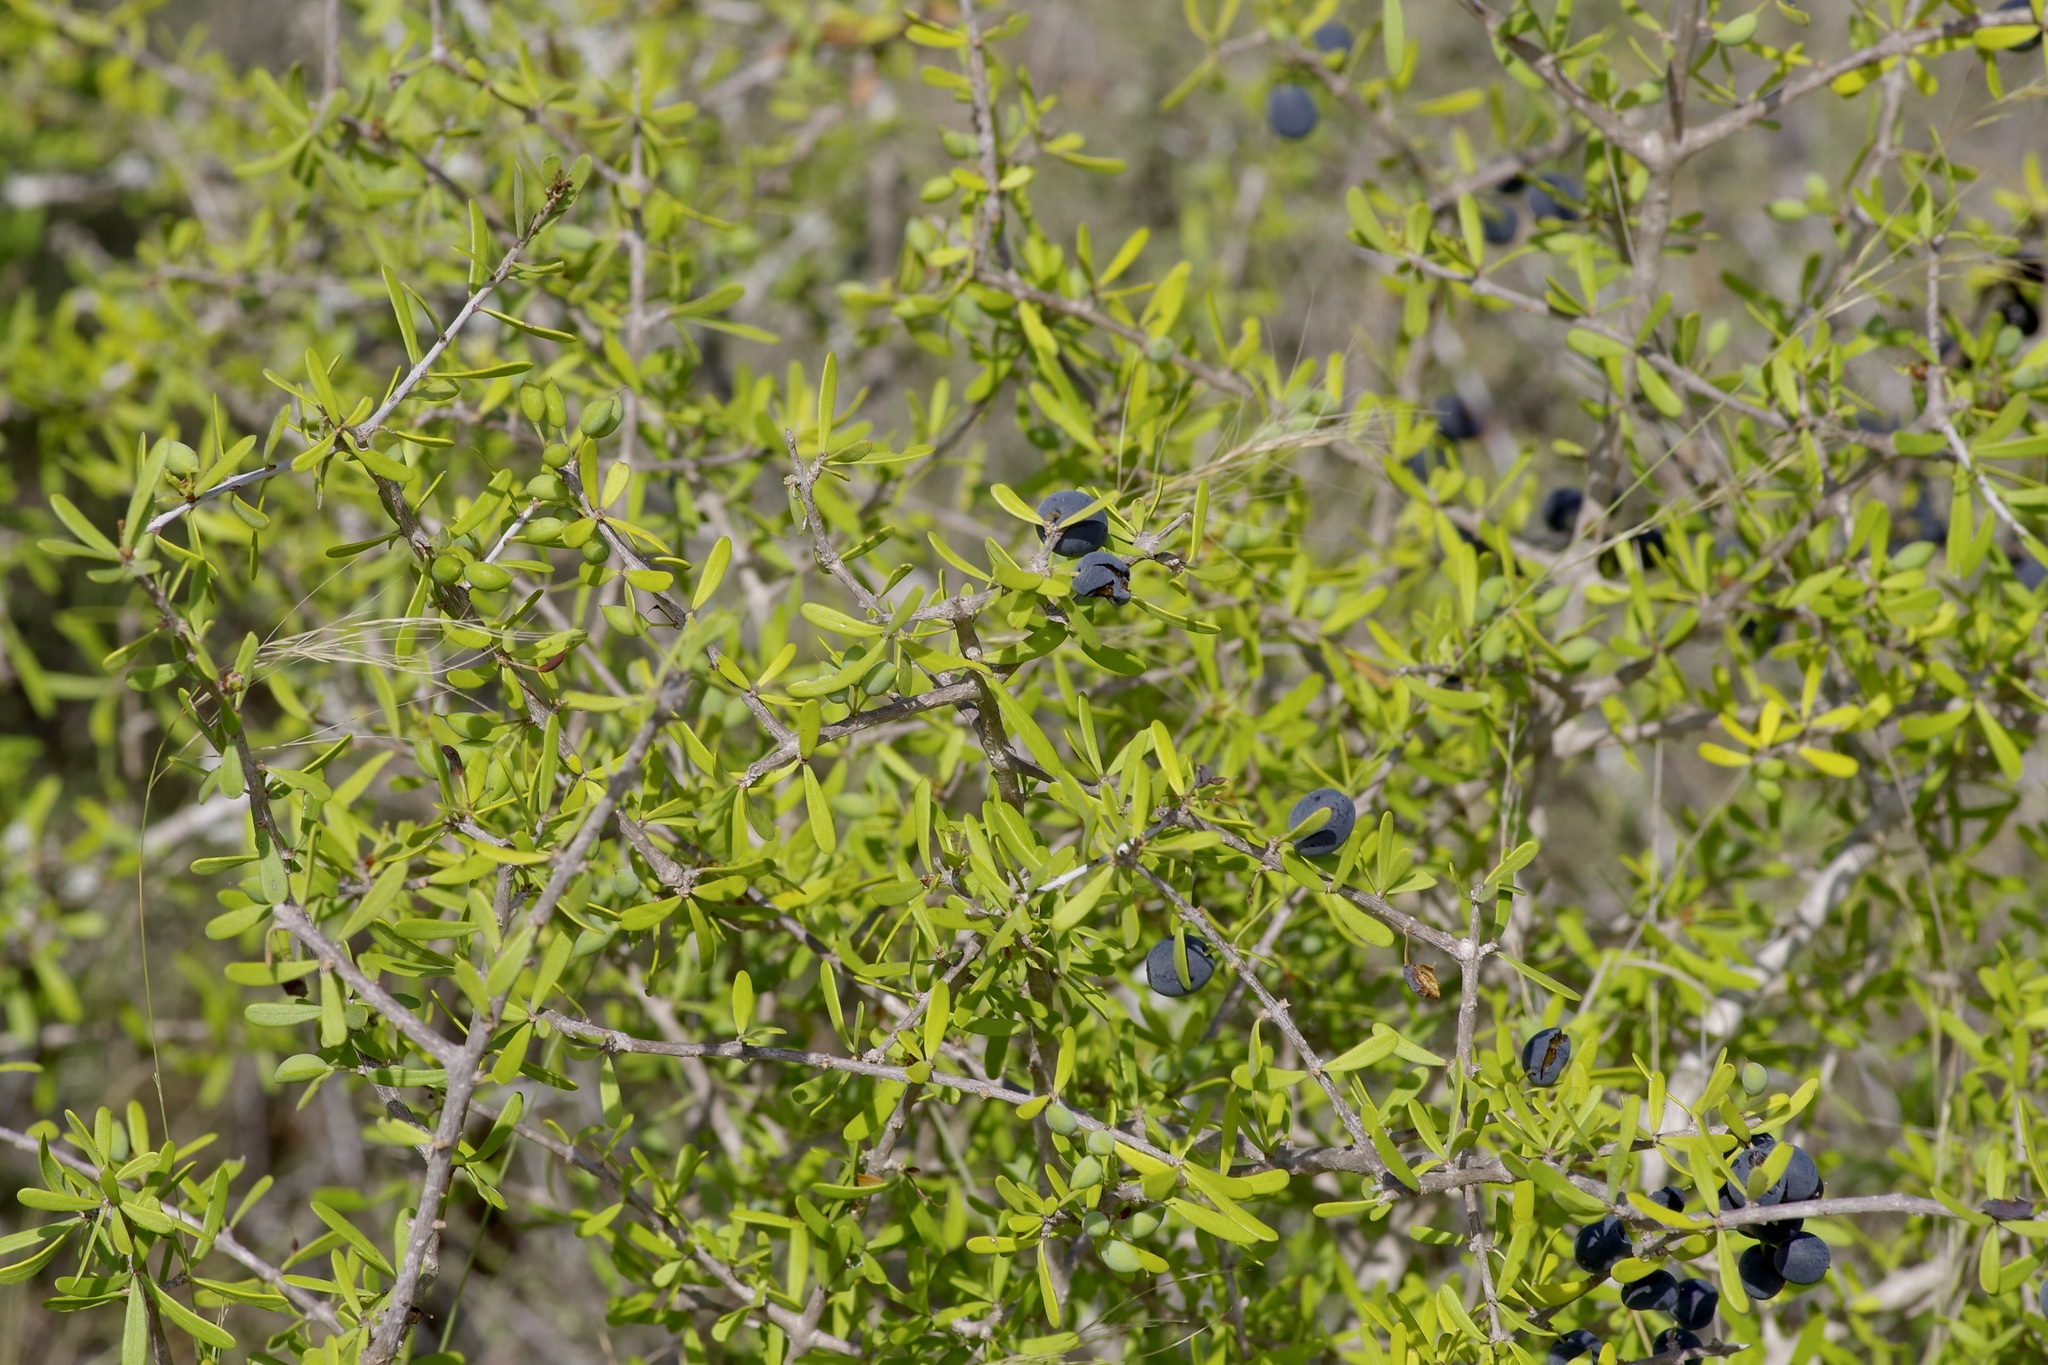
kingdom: Plantae
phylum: Tracheophyta
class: Magnoliopsida
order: Lamiales
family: Oleaceae
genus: Forestiera
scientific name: Forestiera angustifolia
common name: Elbowbush
